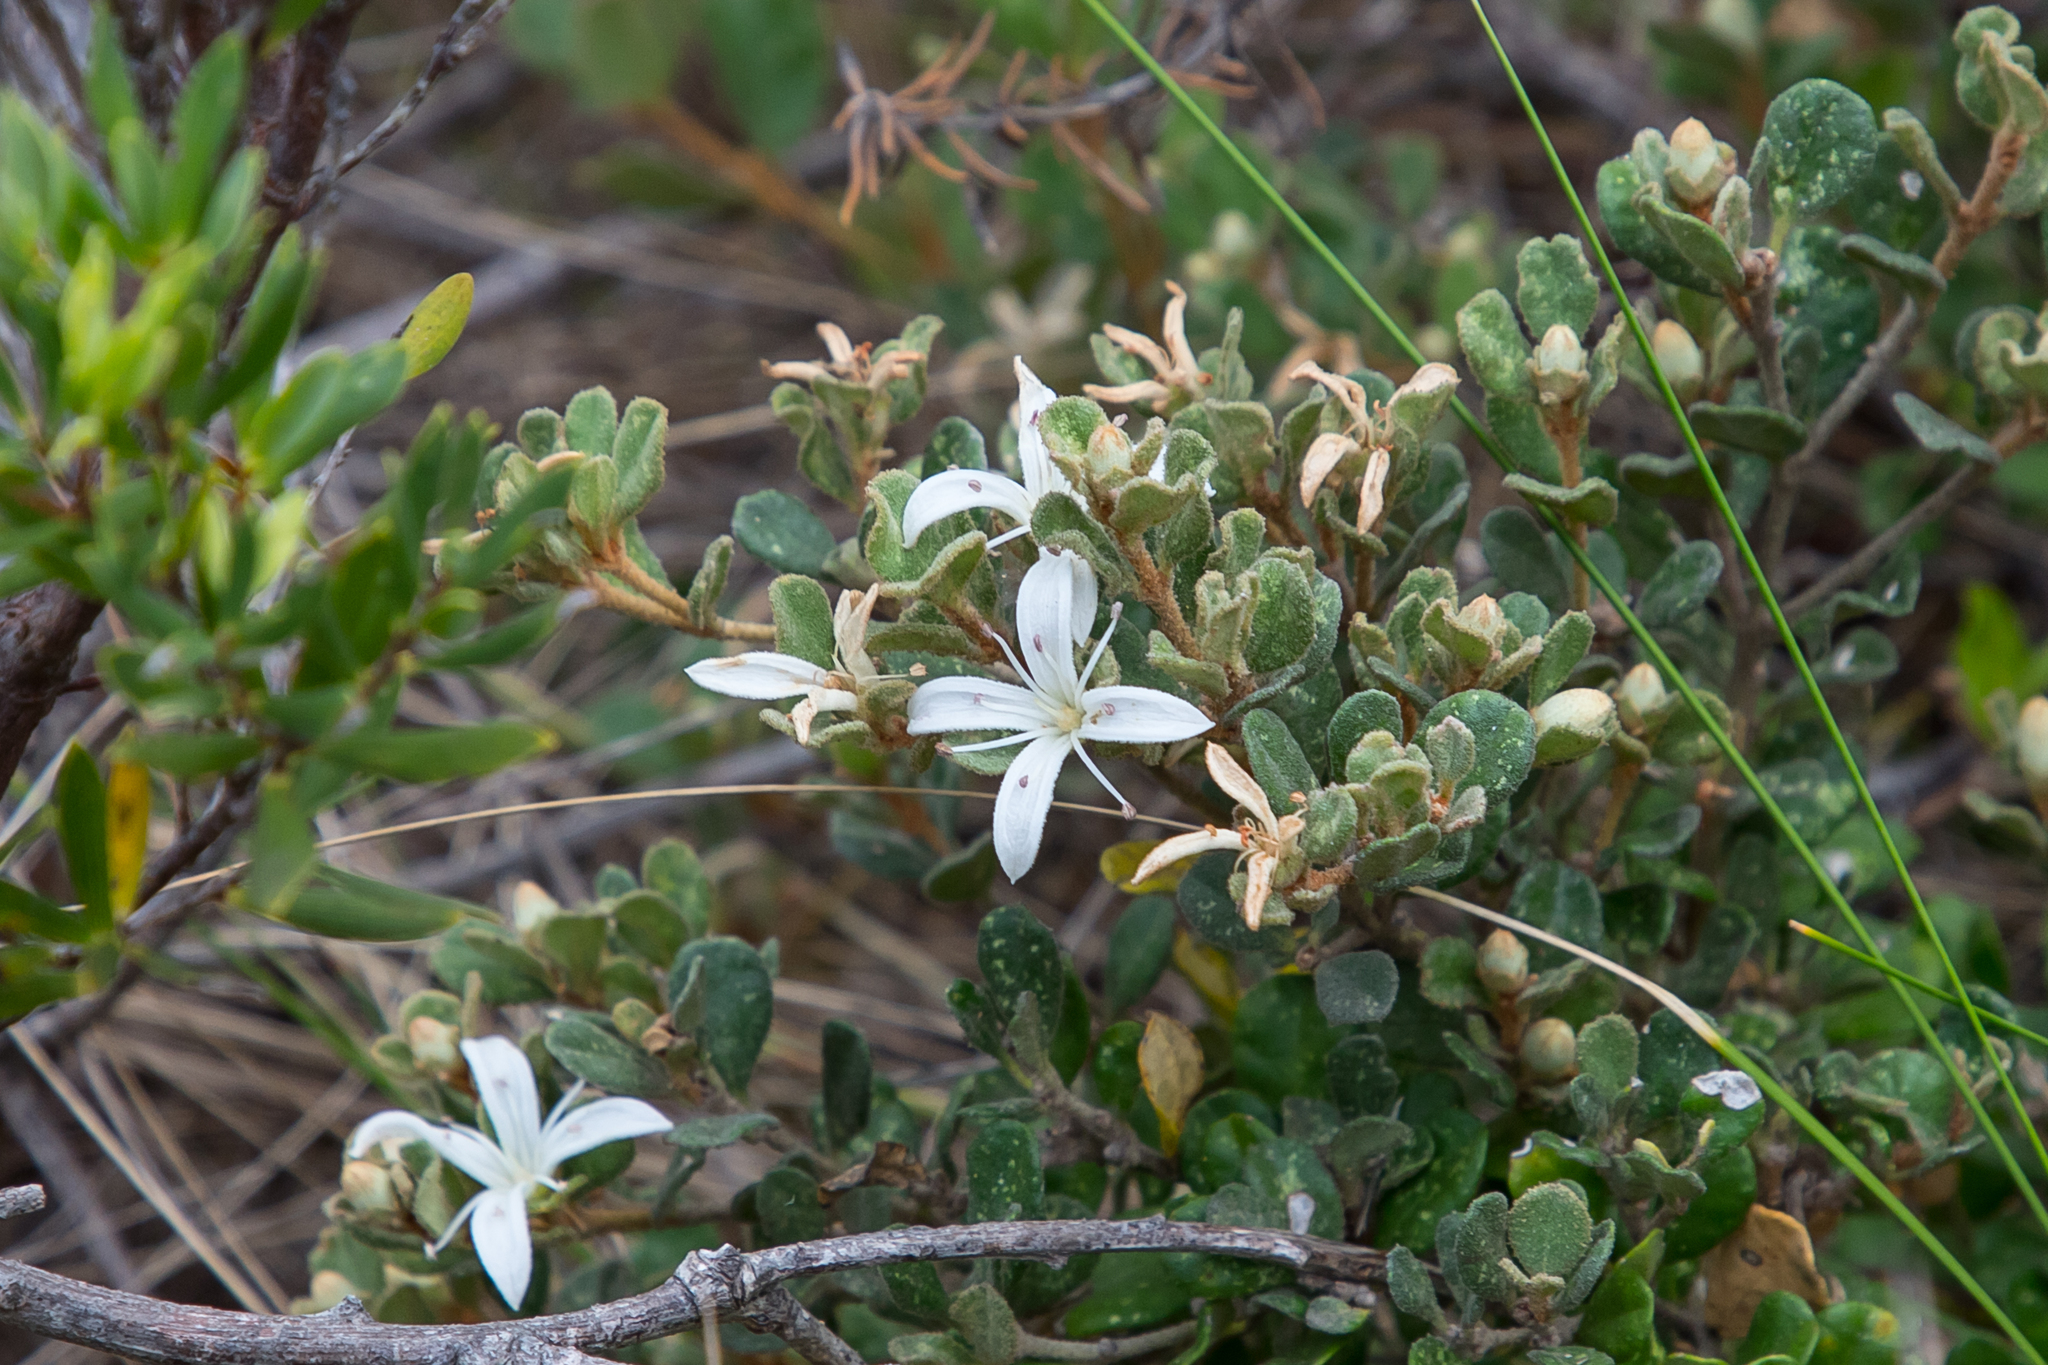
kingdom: Plantae
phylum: Tracheophyta
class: Magnoliopsida
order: Sapindales
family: Rutaceae
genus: Correa
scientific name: Correa alba
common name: White correa
